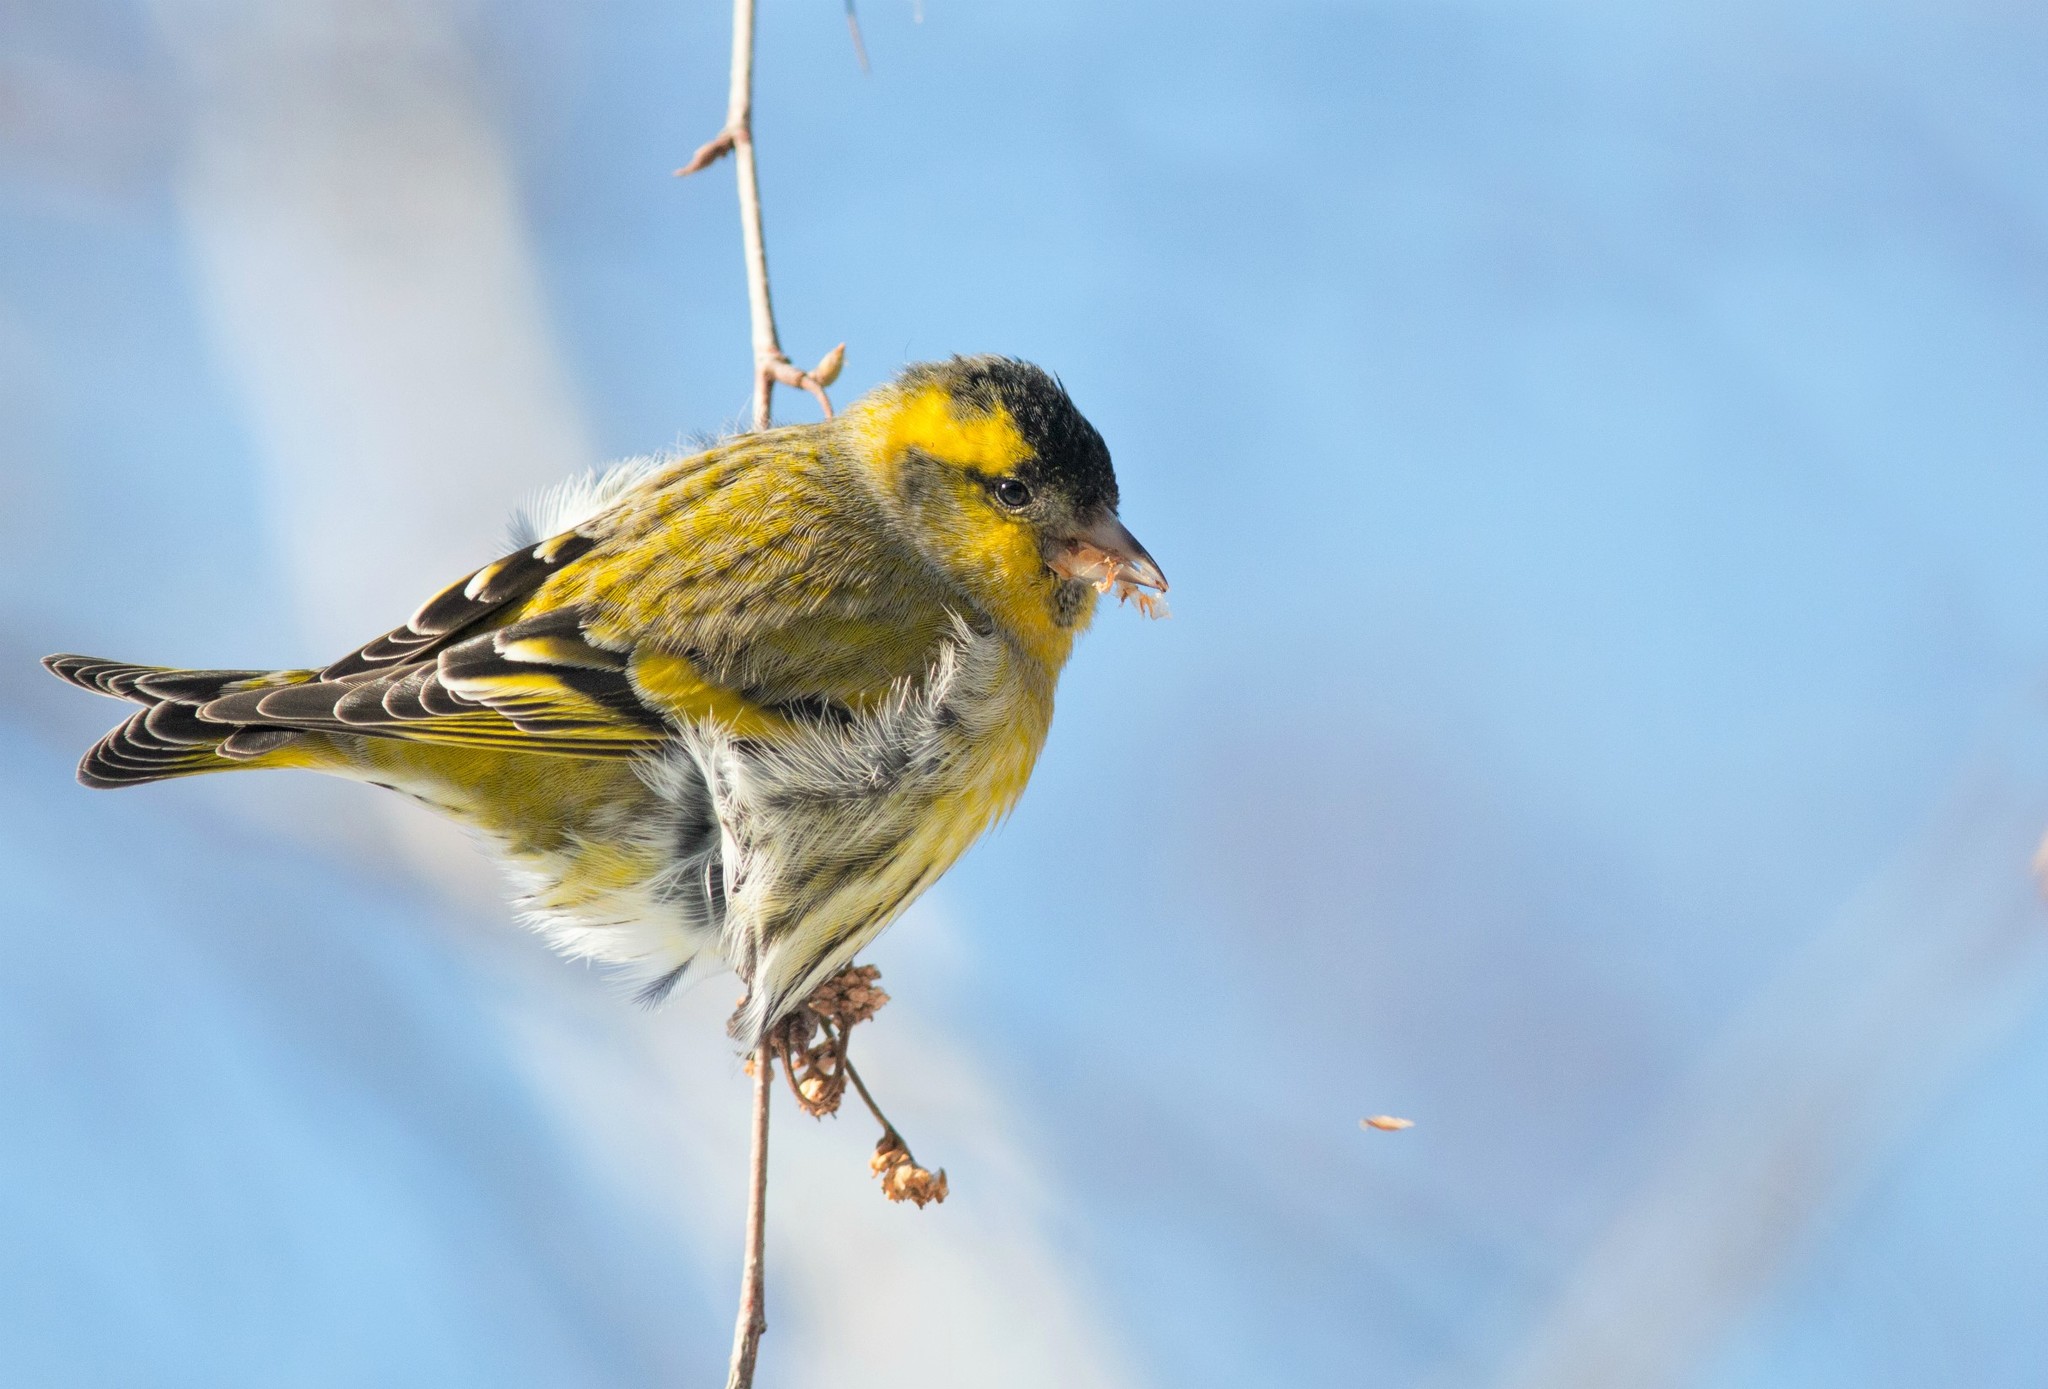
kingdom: Animalia
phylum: Chordata
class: Aves
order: Passeriformes
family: Fringillidae
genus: Spinus
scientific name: Spinus spinus
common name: Eurasian siskin
